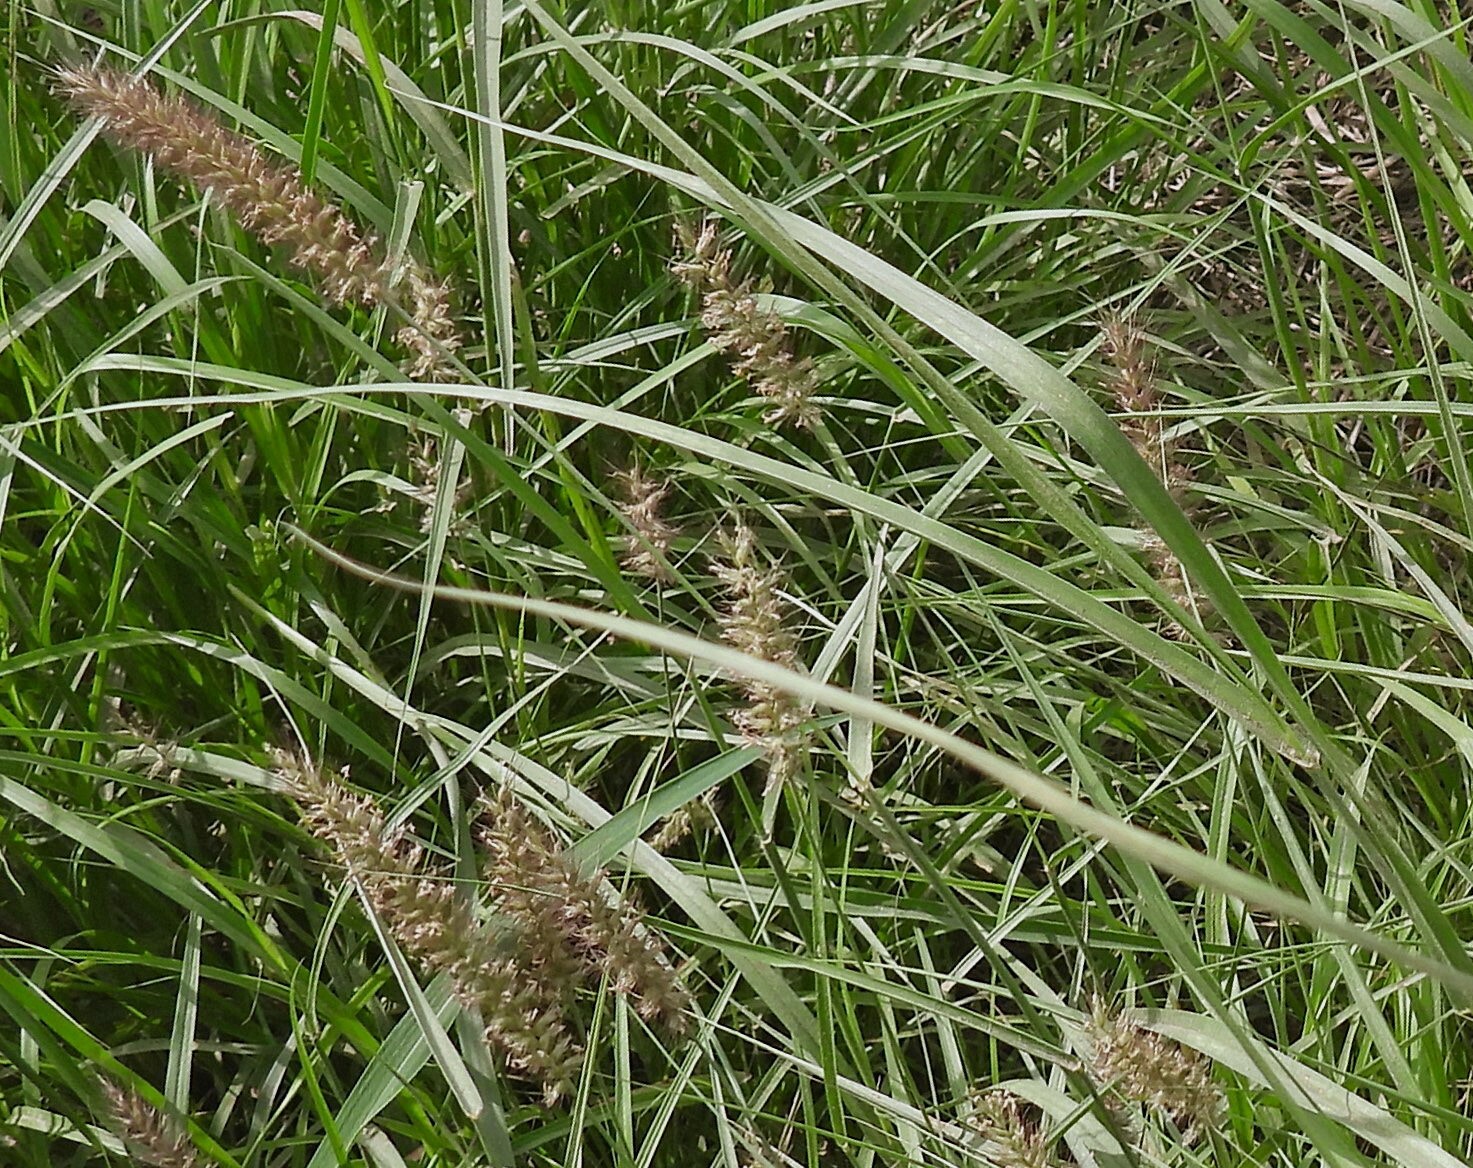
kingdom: Plantae
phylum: Tracheophyta
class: Liliopsida
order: Poales
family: Poaceae
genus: Cenchrus
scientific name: Cenchrus ciliaris
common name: Buffelgrass
